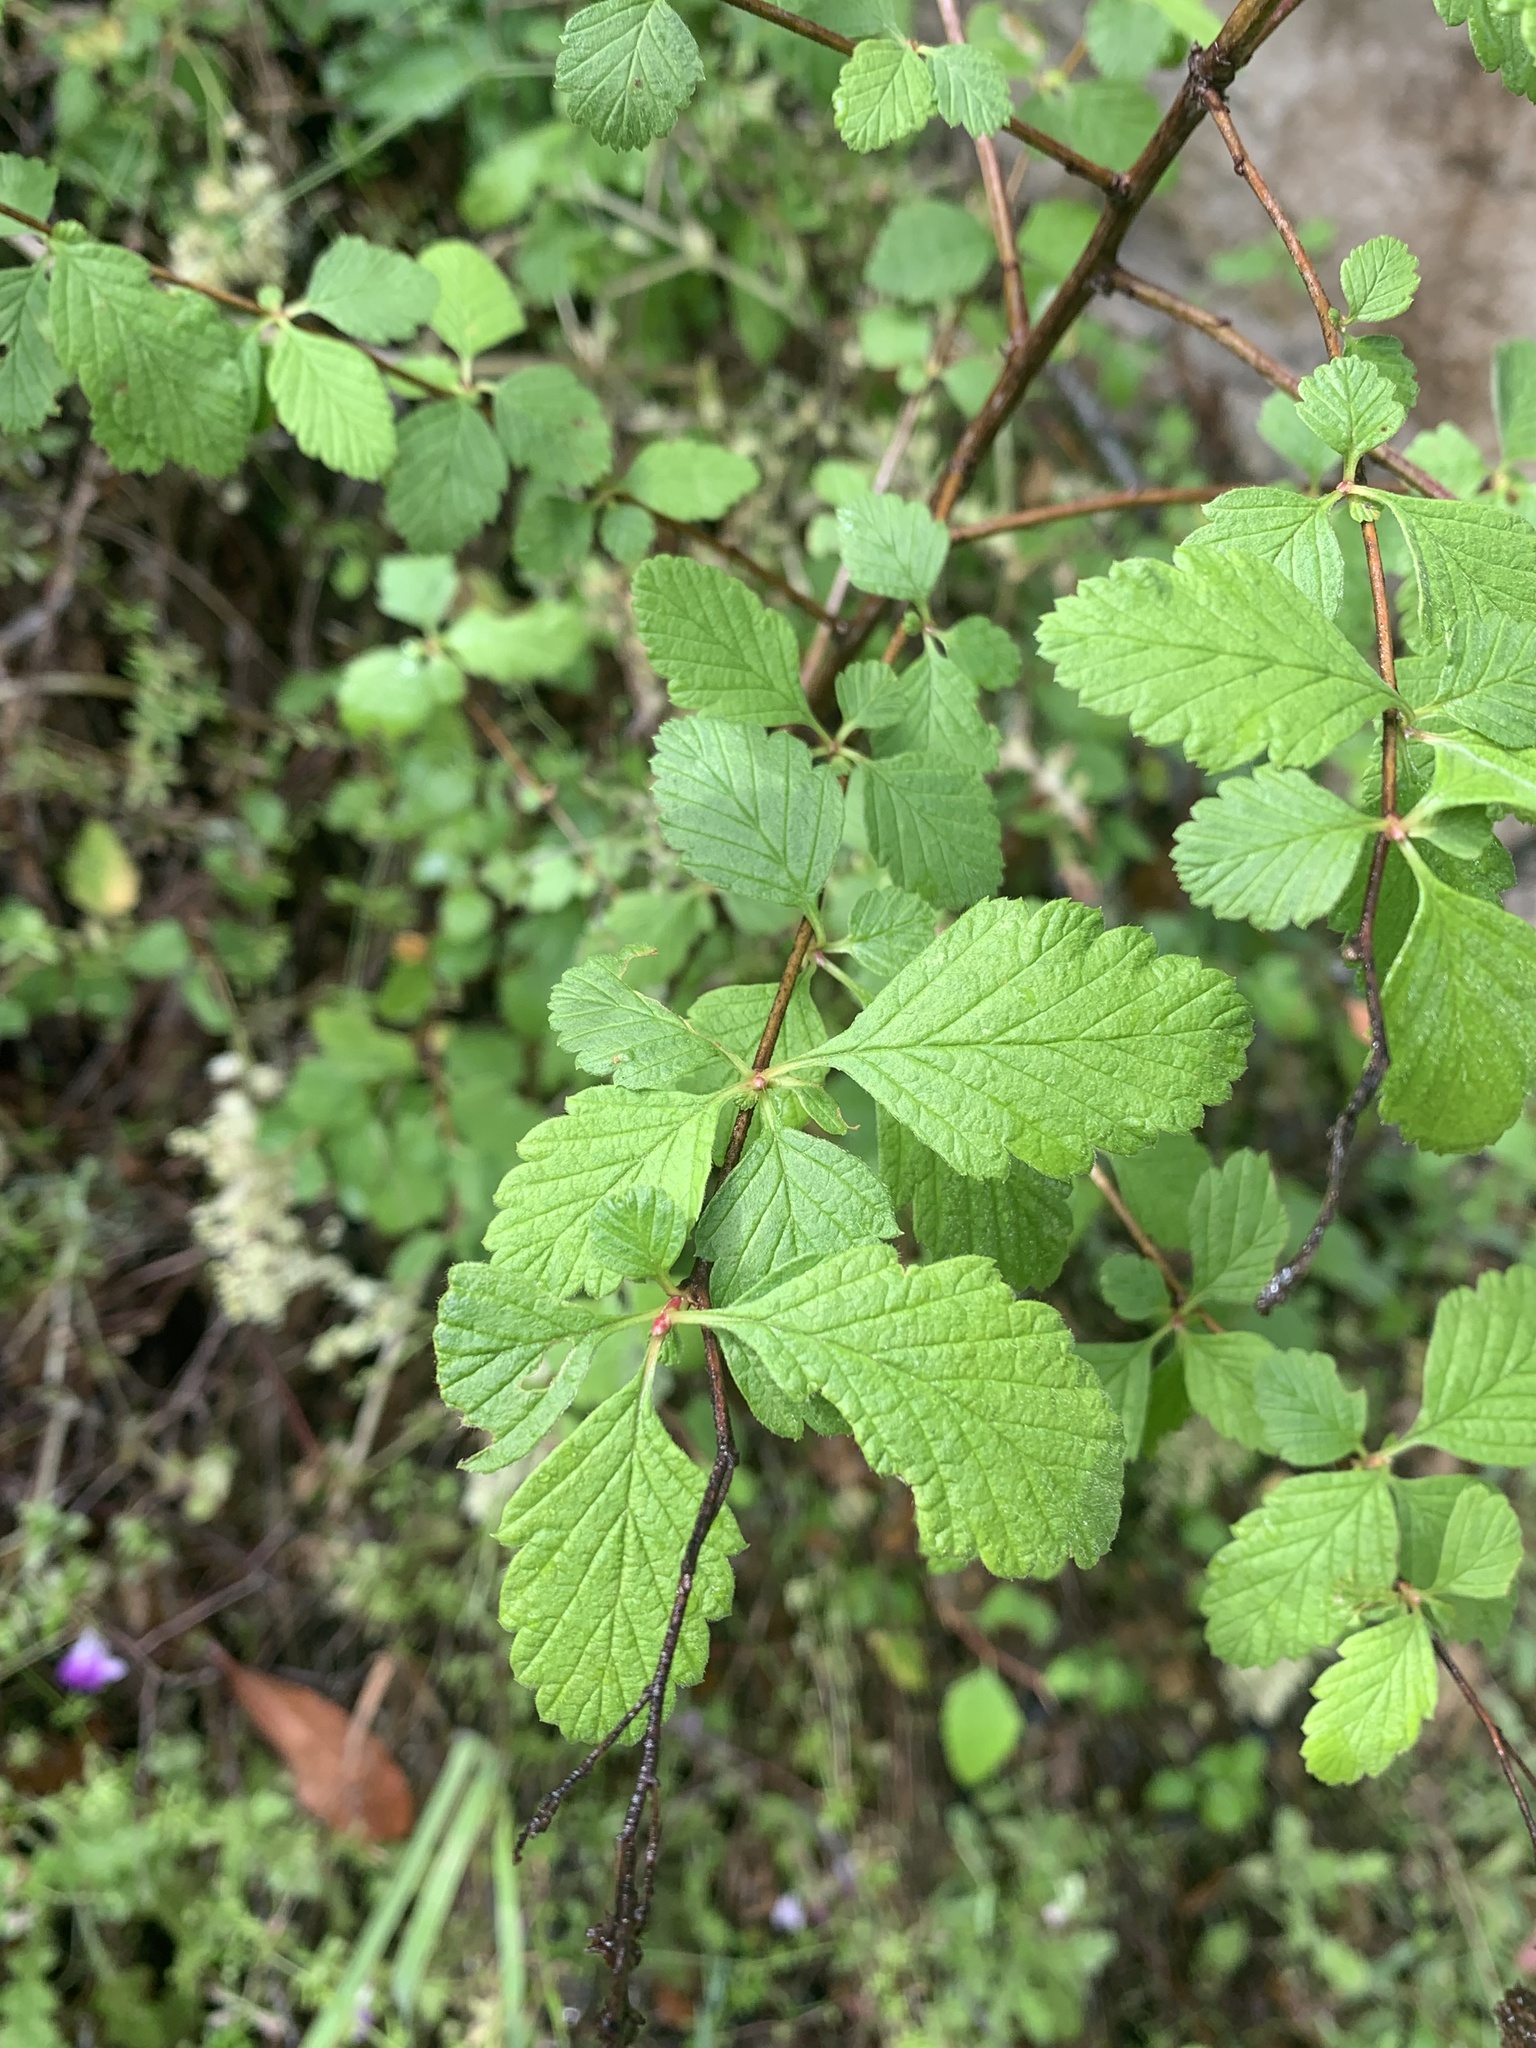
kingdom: Plantae
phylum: Tracheophyta
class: Magnoliopsida
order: Rosales
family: Rosaceae
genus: Holodiscus
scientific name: Holodiscus discolor
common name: Oceanspray
